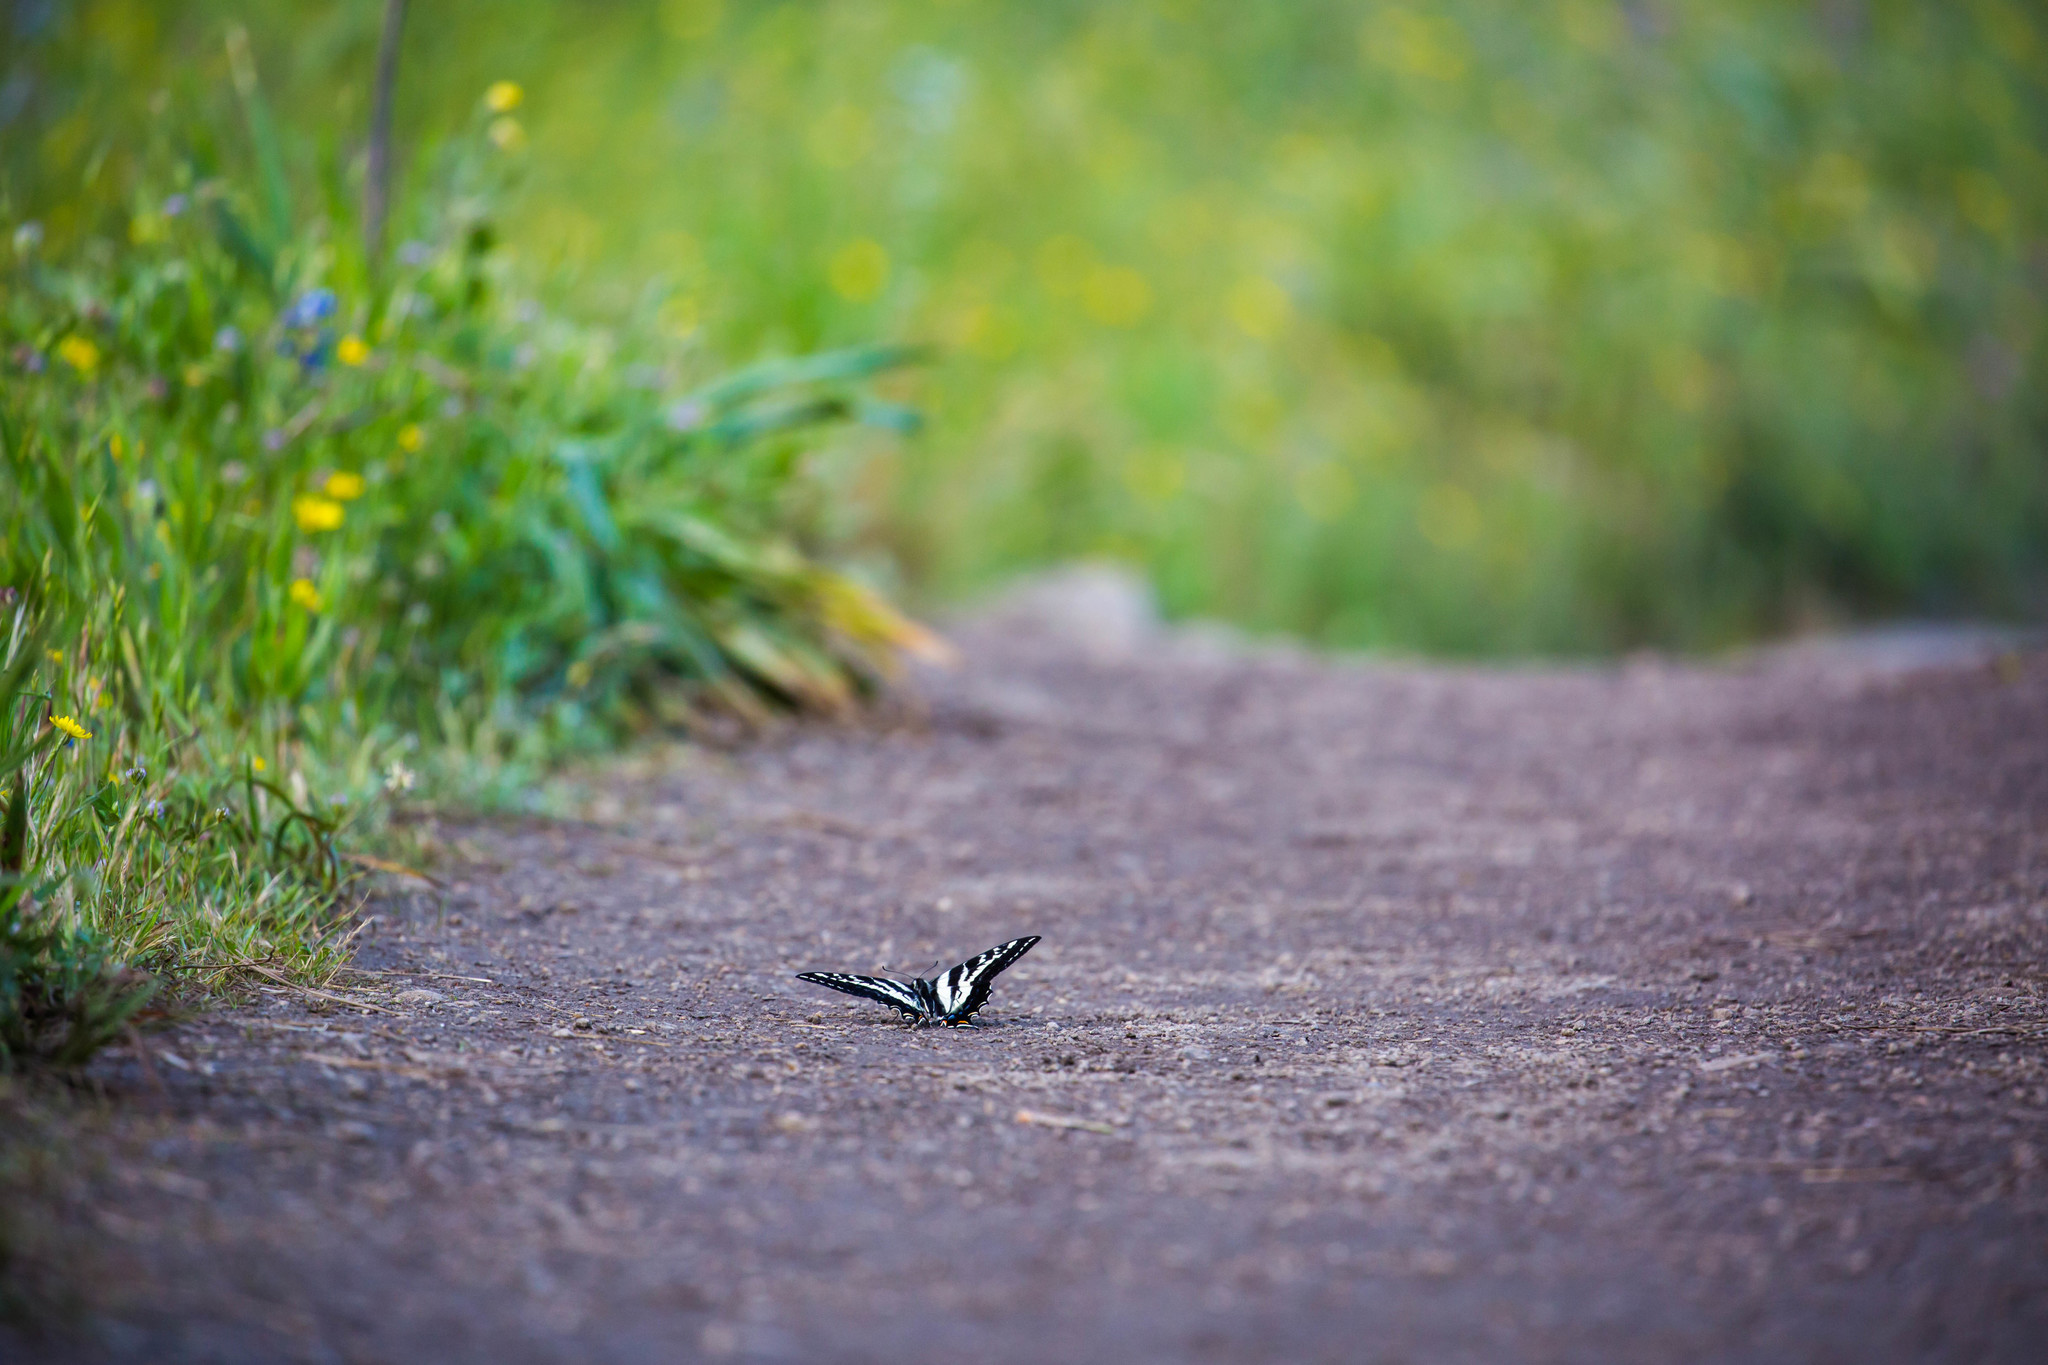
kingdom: Animalia
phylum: Arthropoda
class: Insecta
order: Lepidoptera
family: Papilionidae
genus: Papilio
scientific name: Papilio eurymedon
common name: Pale tiger swallowtail
